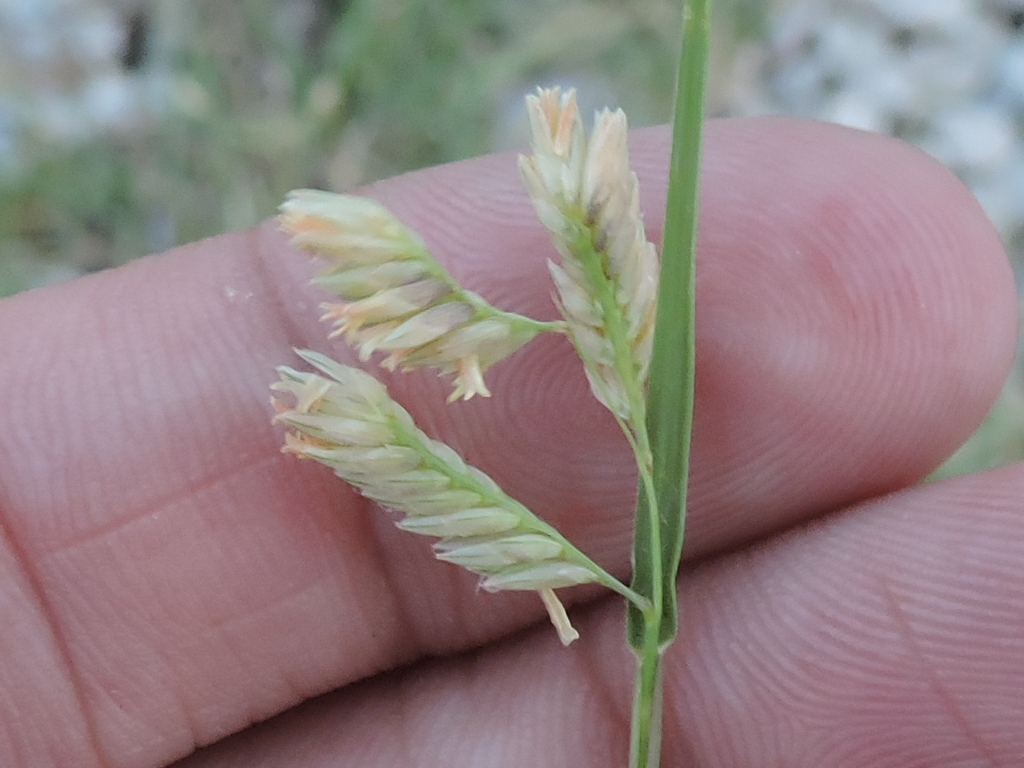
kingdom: Plantae
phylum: Tracheophyta
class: Liliopsida
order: Poales
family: Poaceae
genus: Bouteloua
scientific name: Bouteloua dactyloides
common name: Buffalo grass
